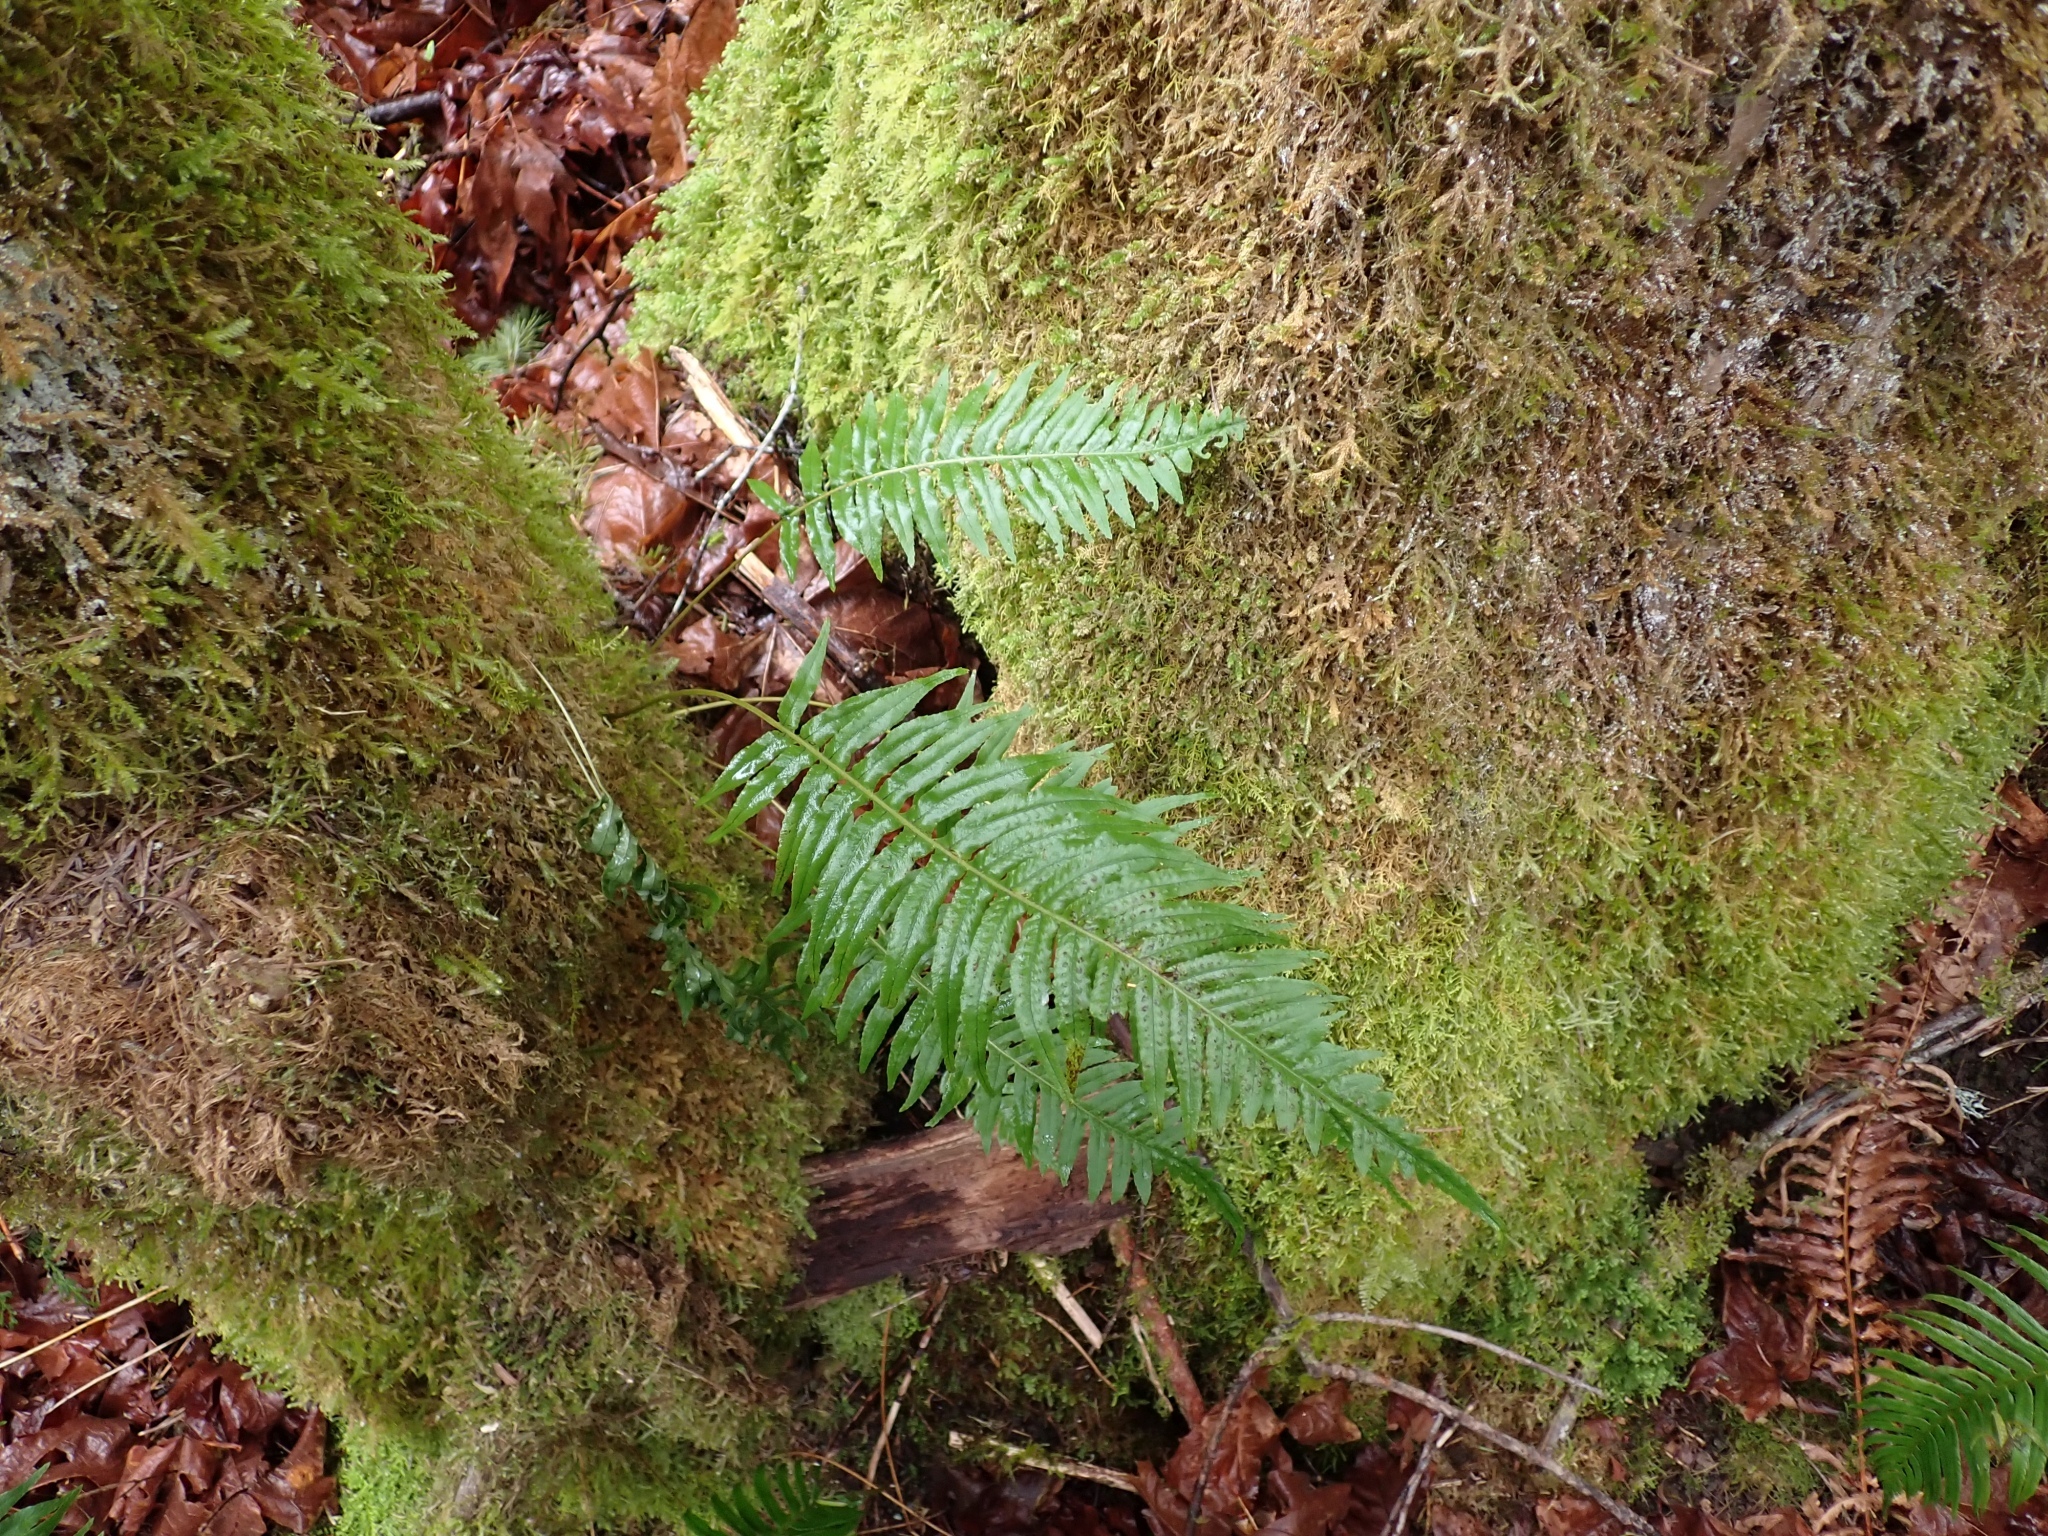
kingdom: Plantae
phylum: Tracheophyta
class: Polypodiopsida
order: Polypodiales
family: Polypodiaceae
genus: Polypodium
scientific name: Polypodium glycyrrhiza
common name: Licorice fern
